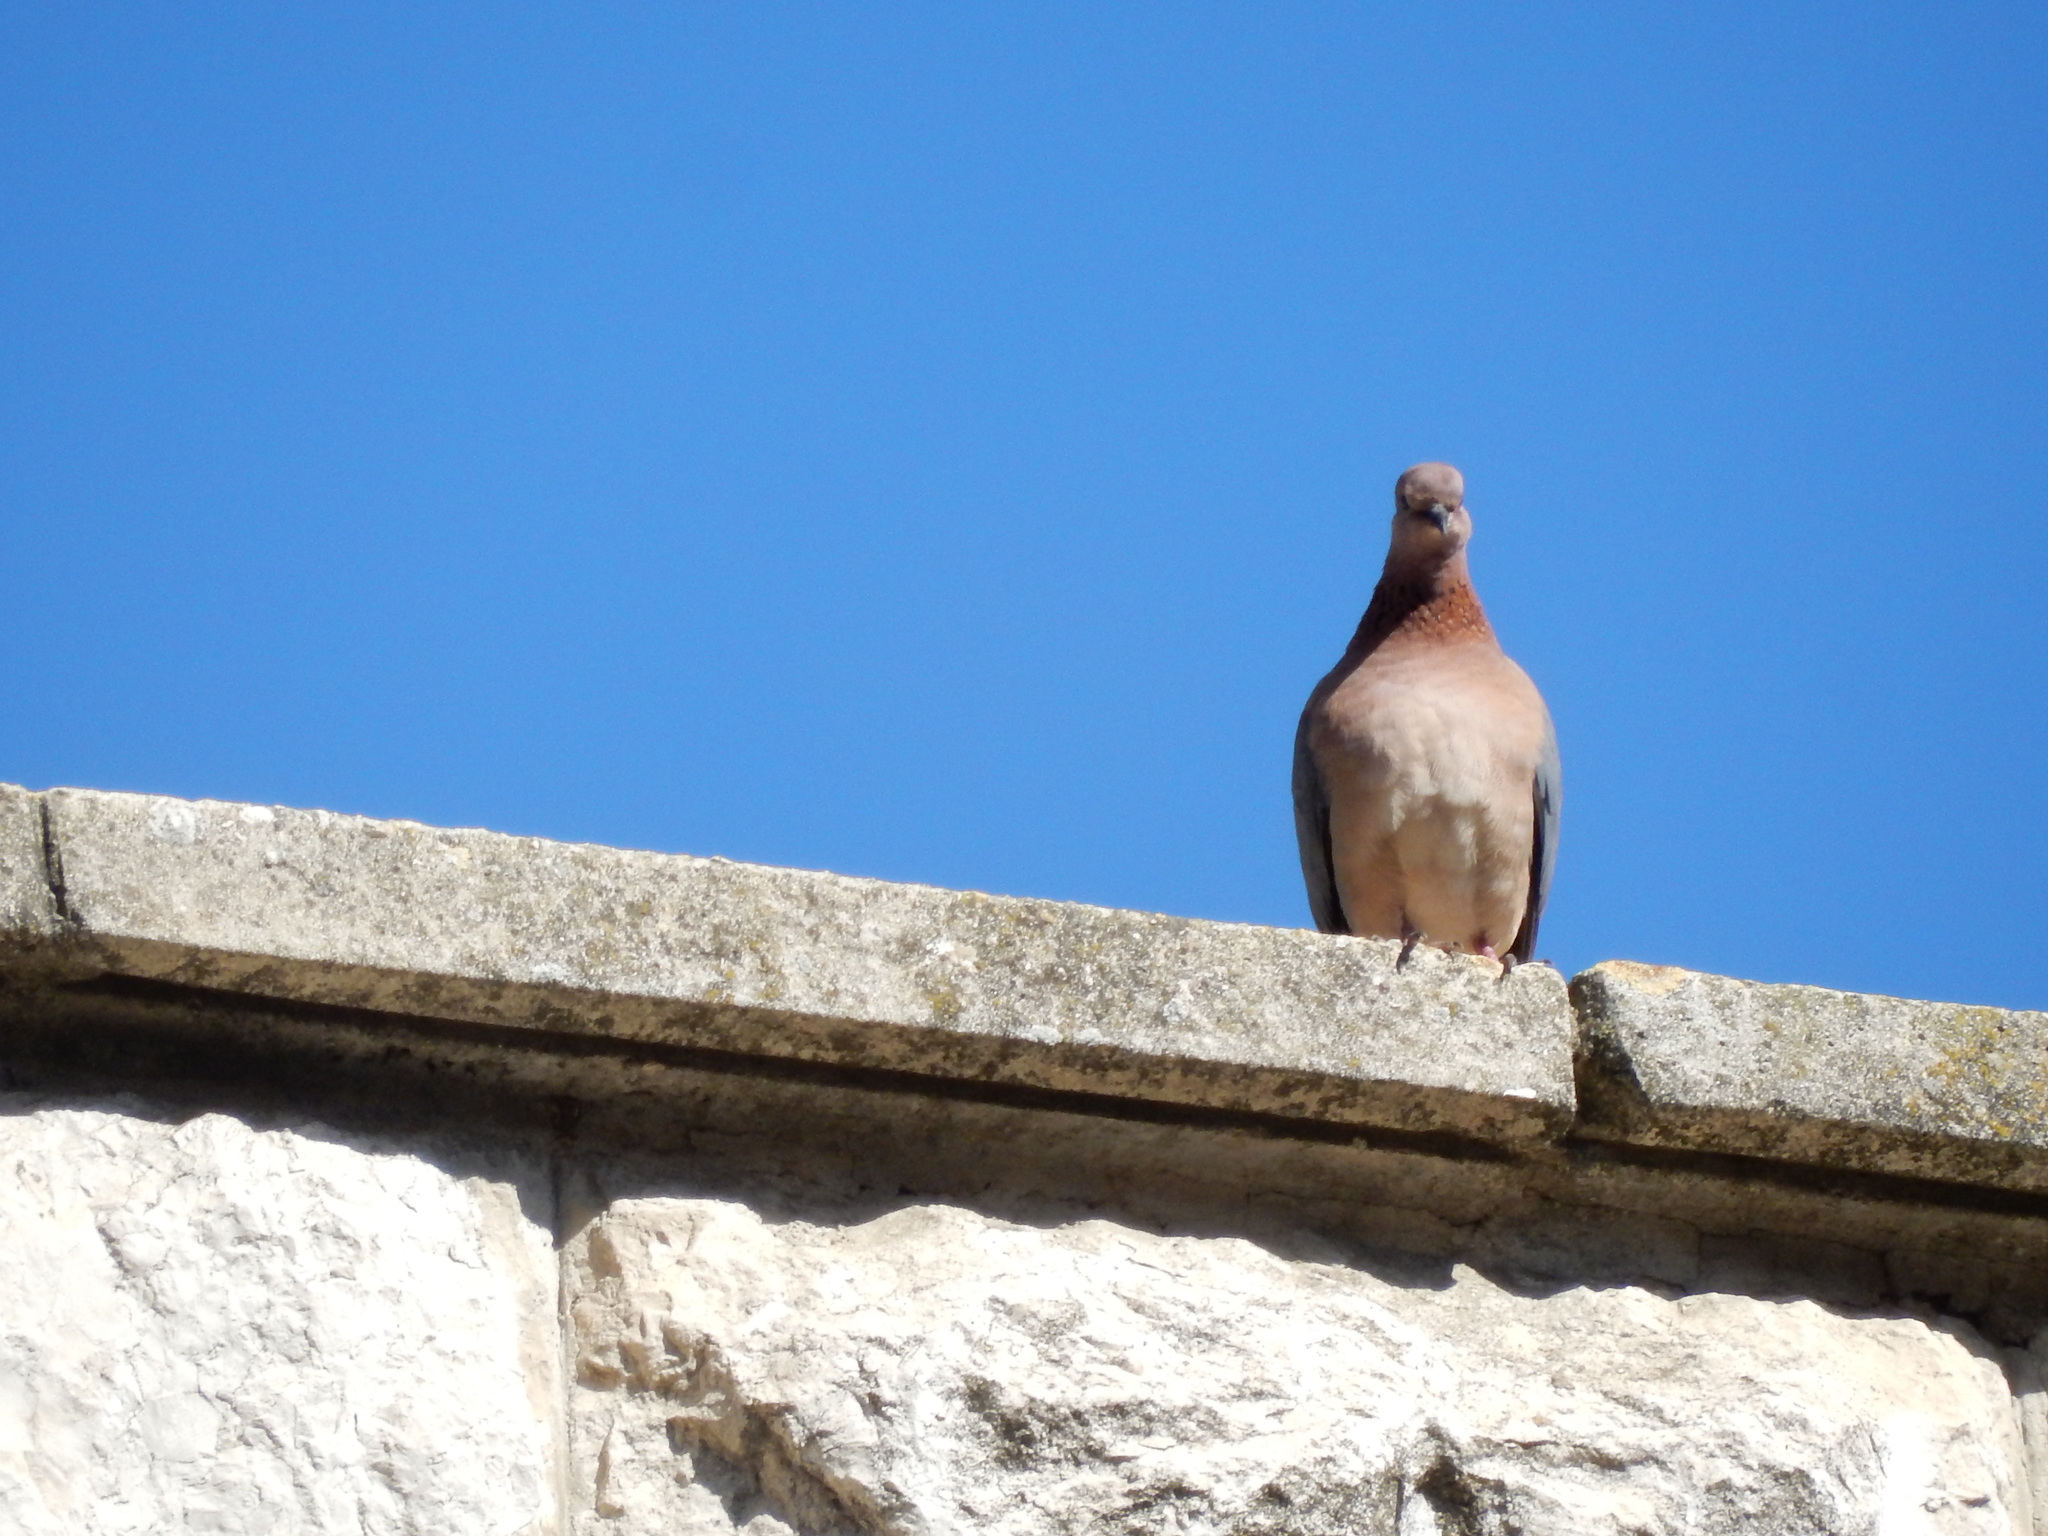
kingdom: Animalia
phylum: Chordata
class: Aves
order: Columbiformes
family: Columbidae
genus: Spilopelia
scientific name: Spilopelia senegalensis
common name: Laughing dove
